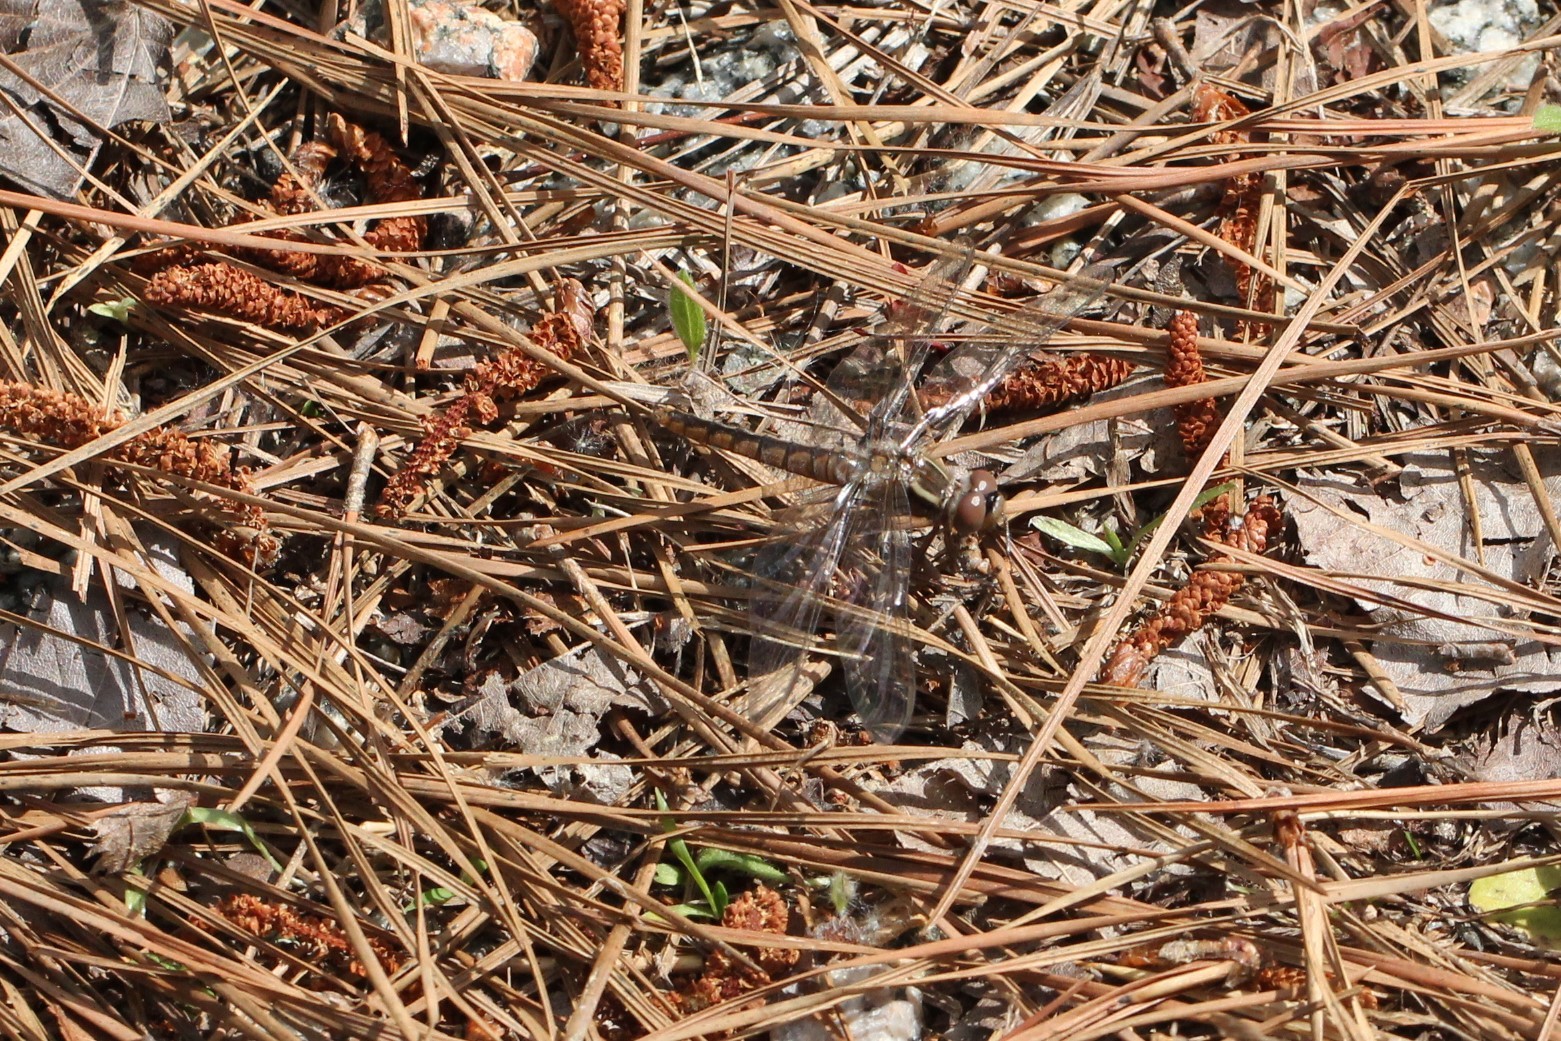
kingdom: Animalia
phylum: Arthropoda
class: Insecta
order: Odonata
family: Libellulidae
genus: Ladona
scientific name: Ladona deplanata
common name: Blue corporal
